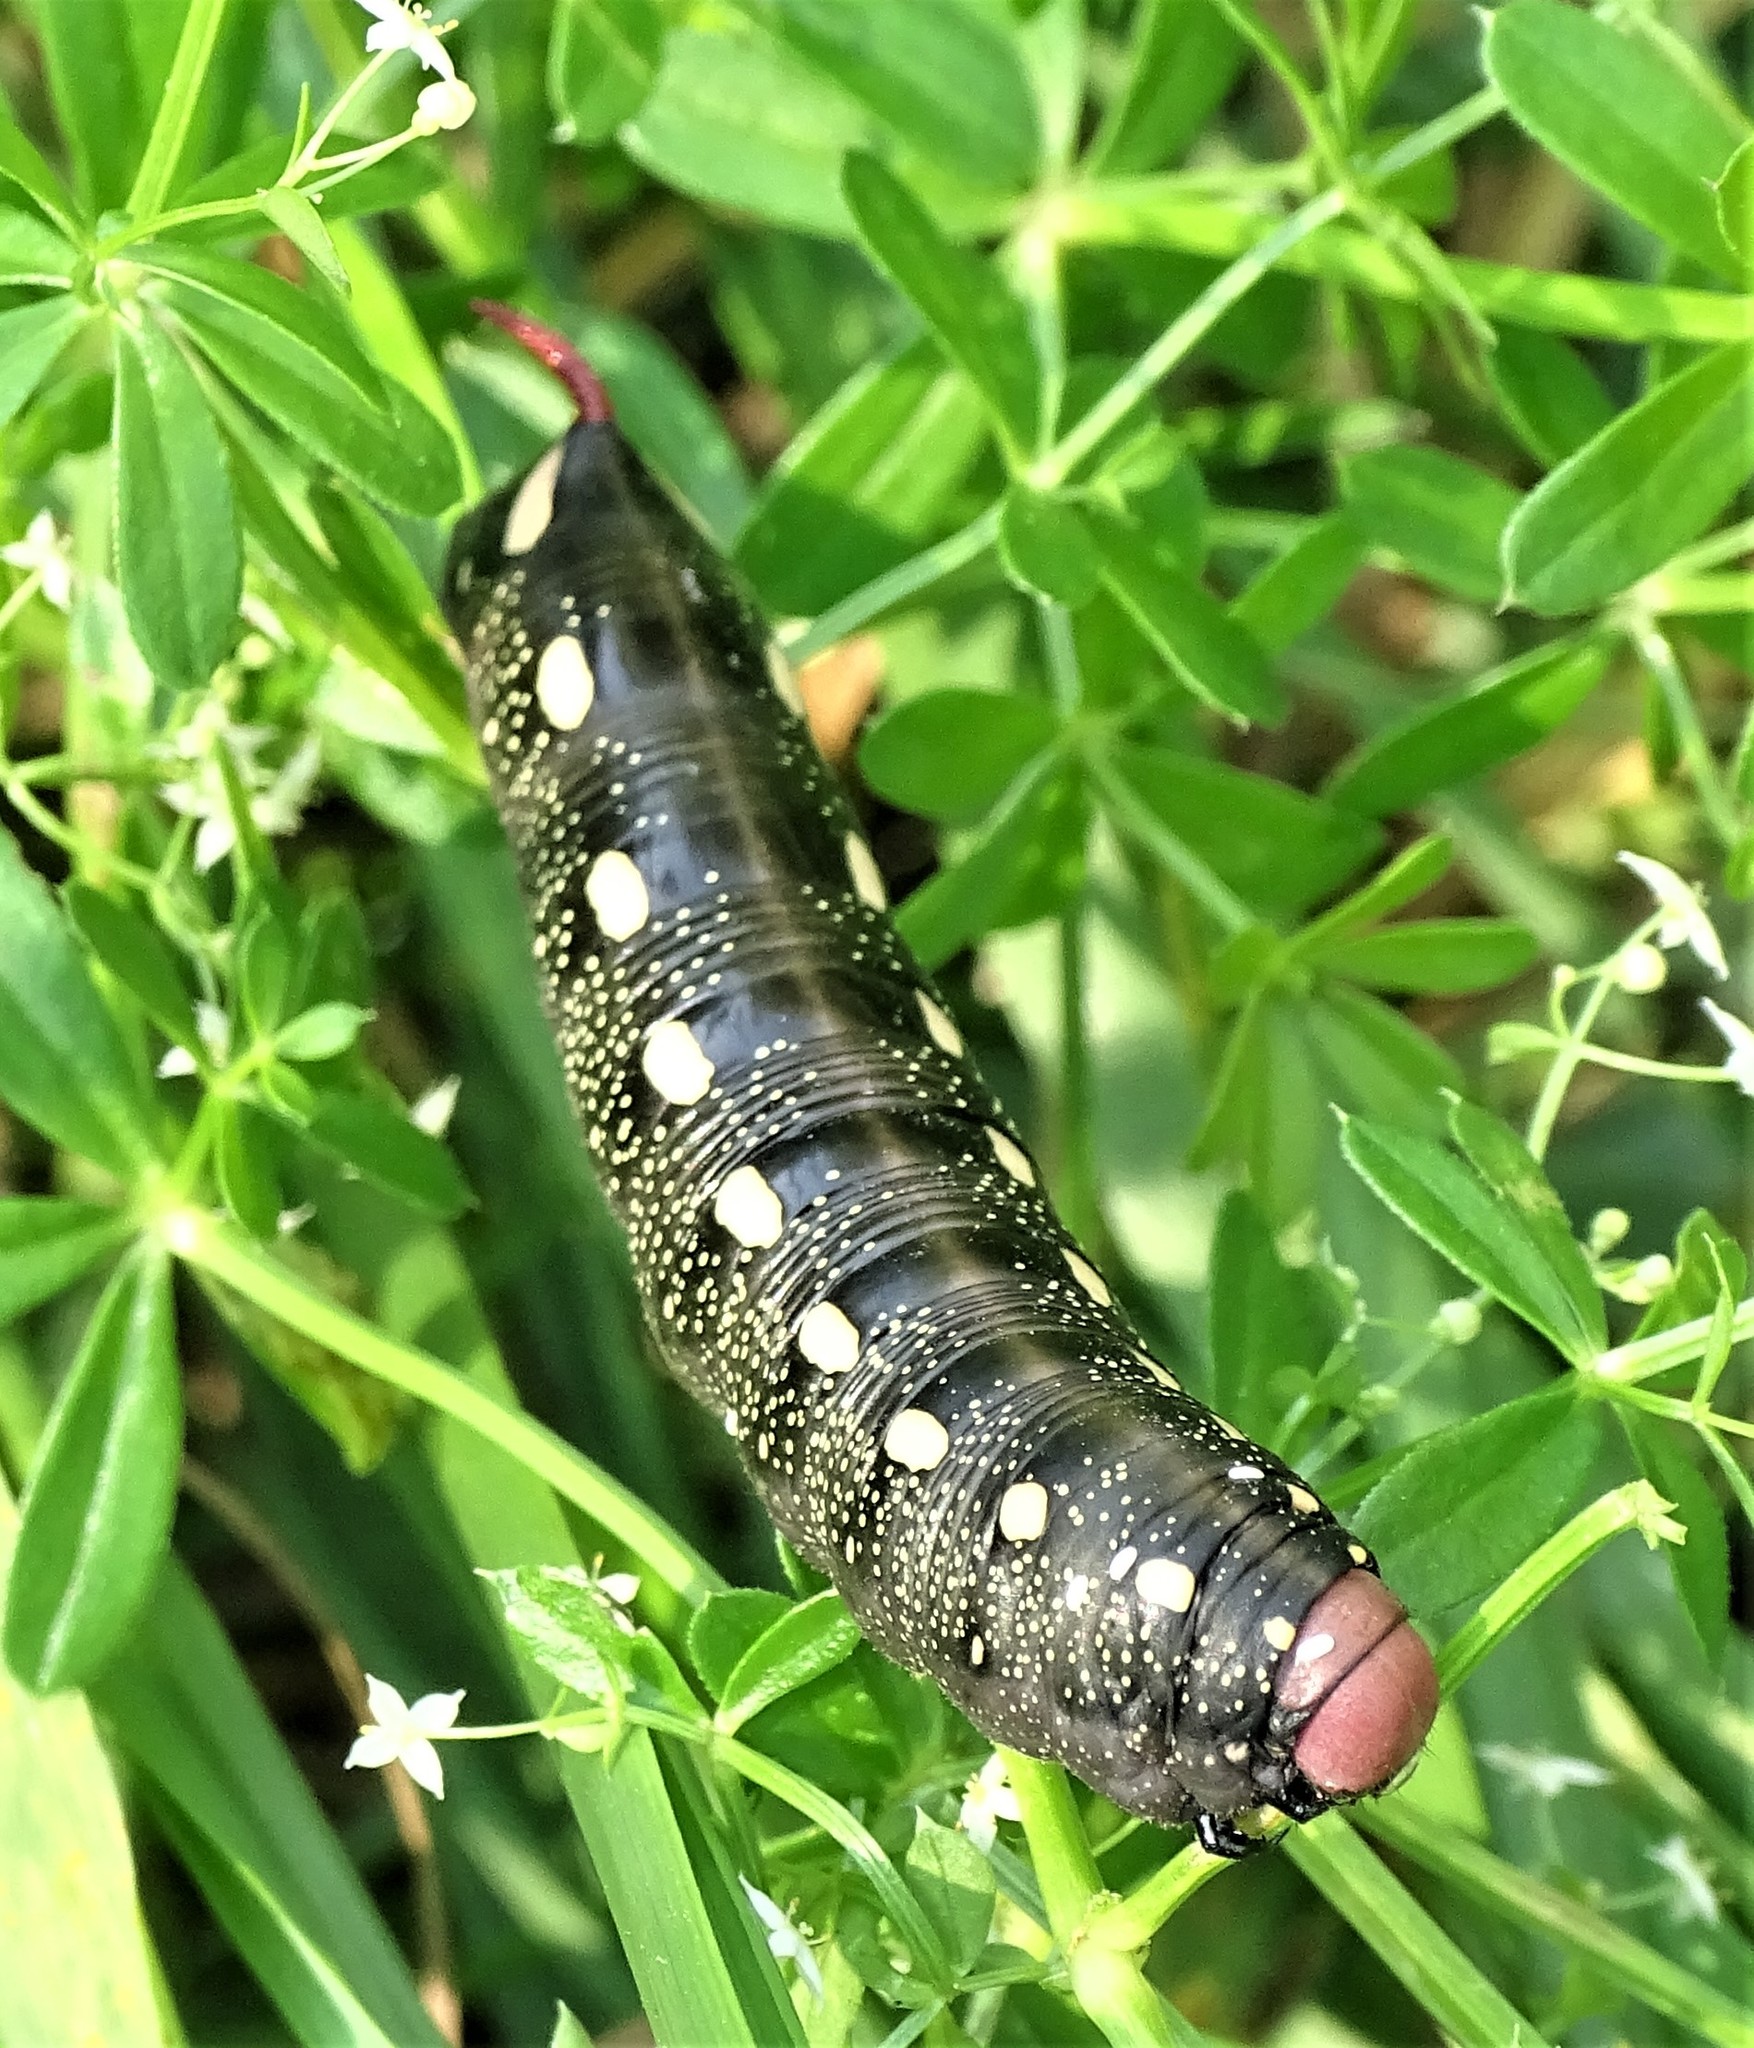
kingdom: Animalia
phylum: Arthropoda
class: Insecta
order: Lepidoptera
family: Sphingidae
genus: Hyles
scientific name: Hyles gallii
